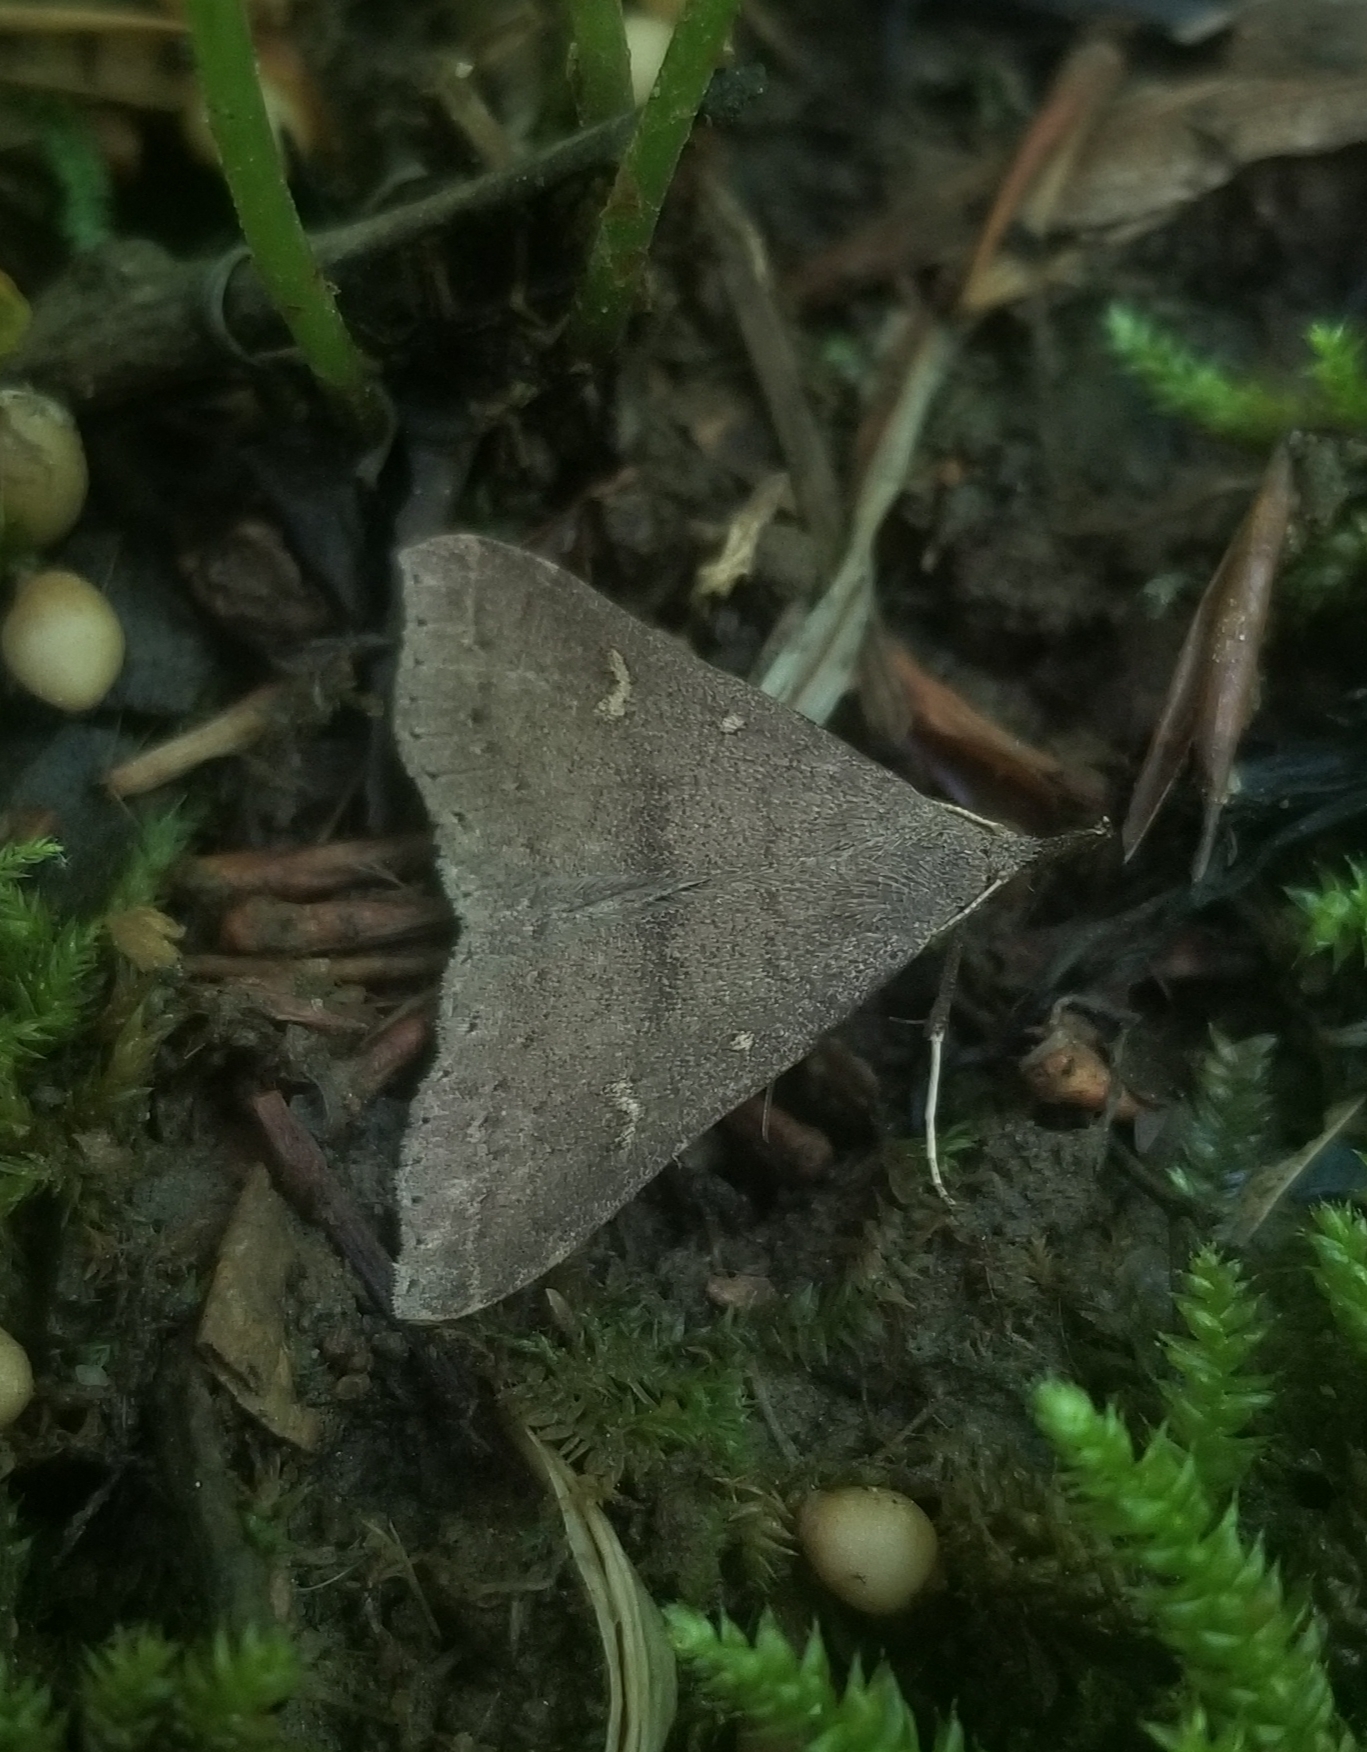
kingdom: Animalia
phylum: Arthropoda
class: Insecta
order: Lepidoptera
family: Erebidae
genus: Renia
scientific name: Renia adspergillus
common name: Speckled renia moth
